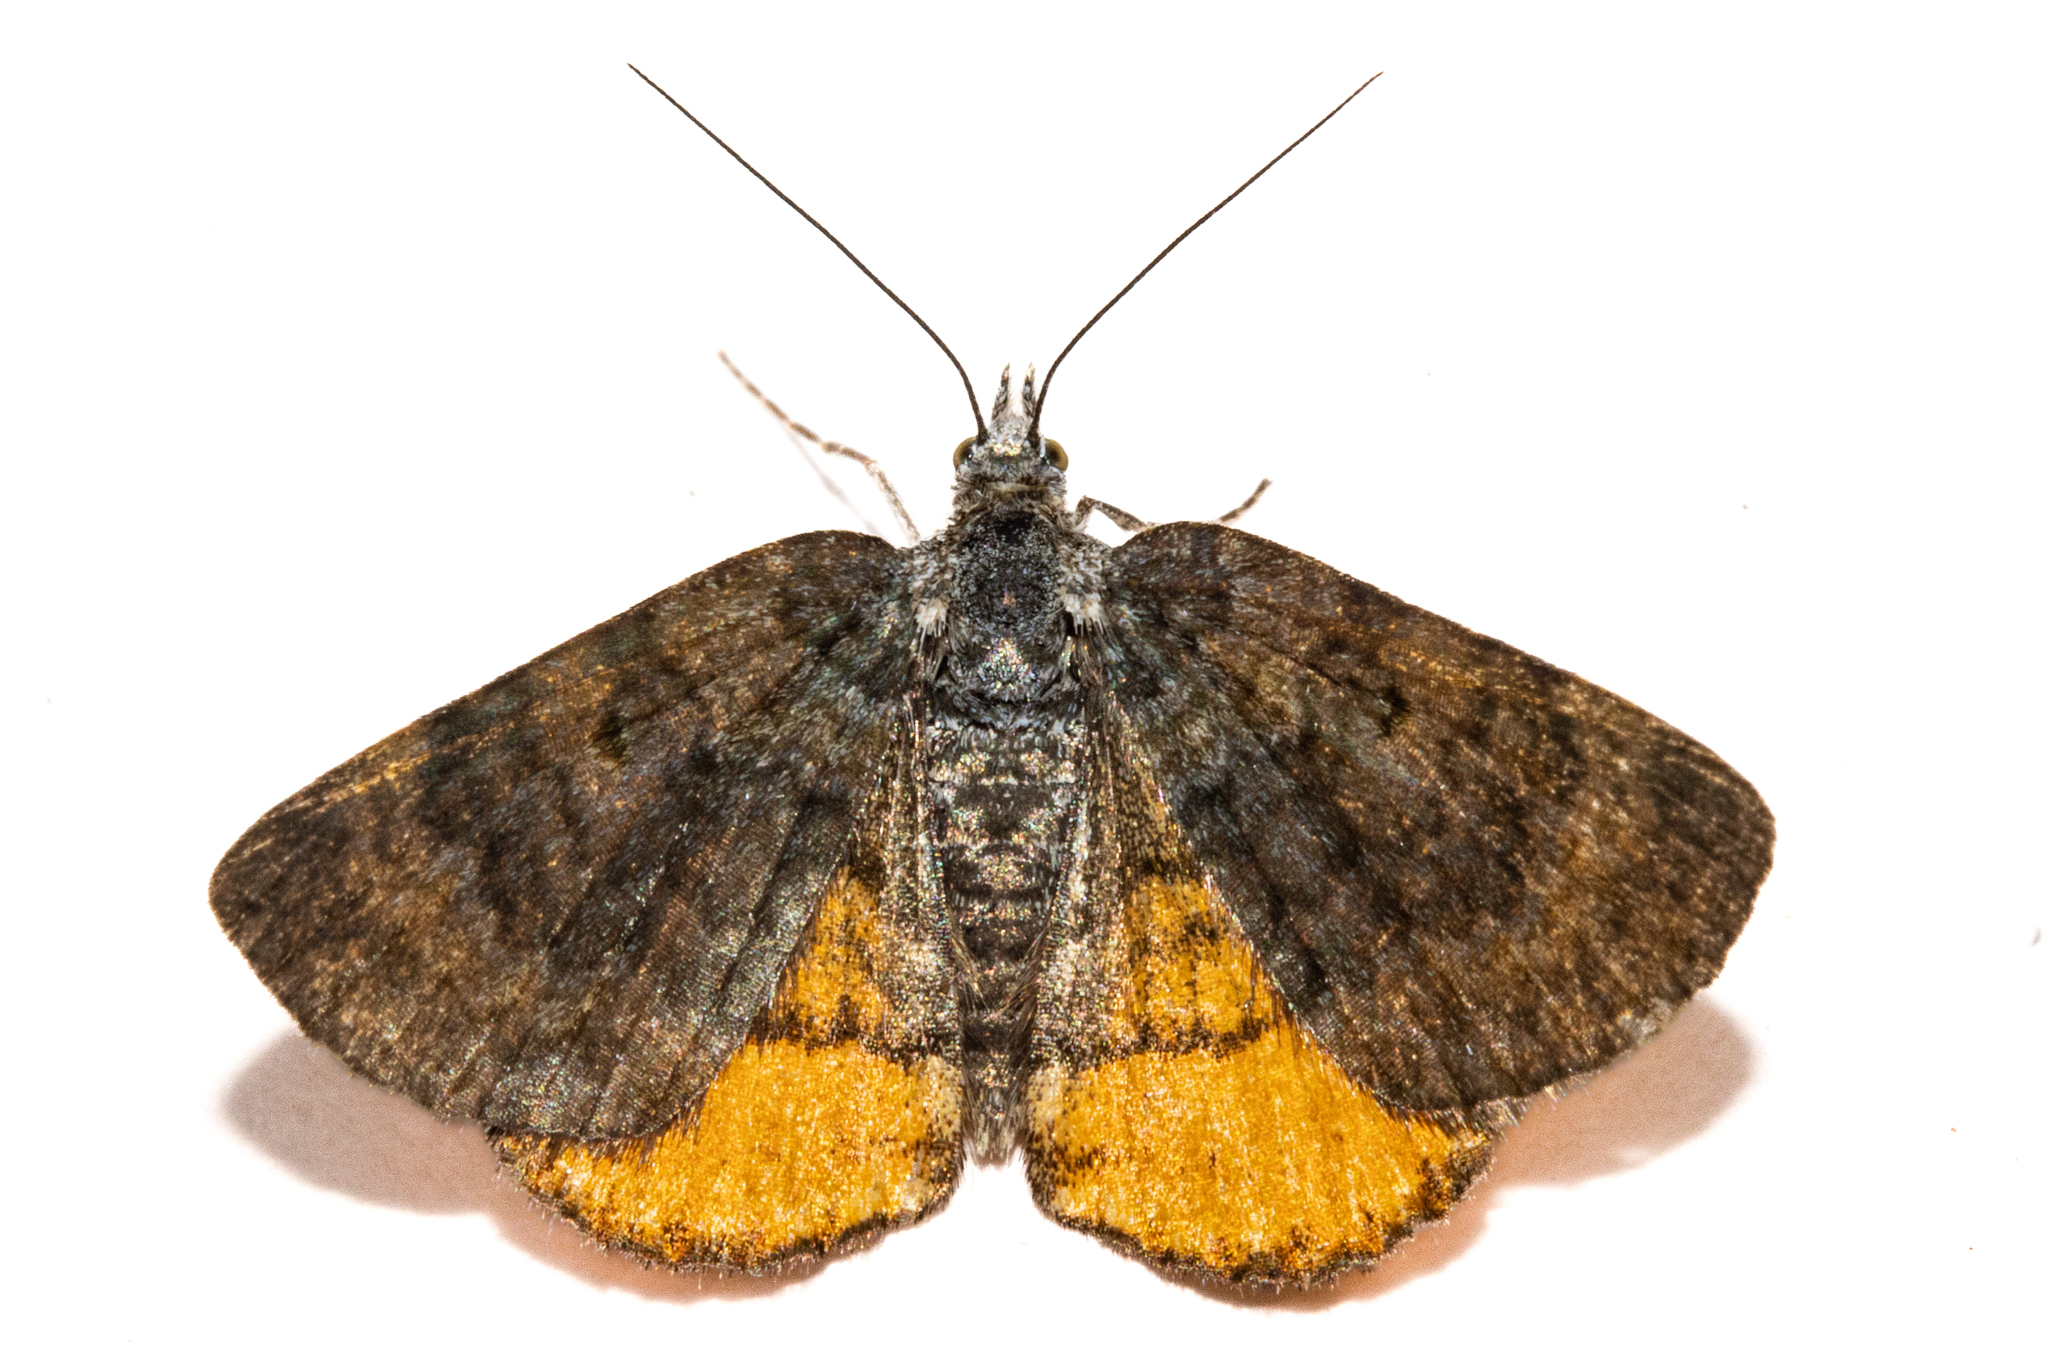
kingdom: Animalia
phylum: Arthropoda
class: Insecta
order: Lepidoptera
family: Geometridae
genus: Paranotoreas
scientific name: Paranotoreas zopyra
